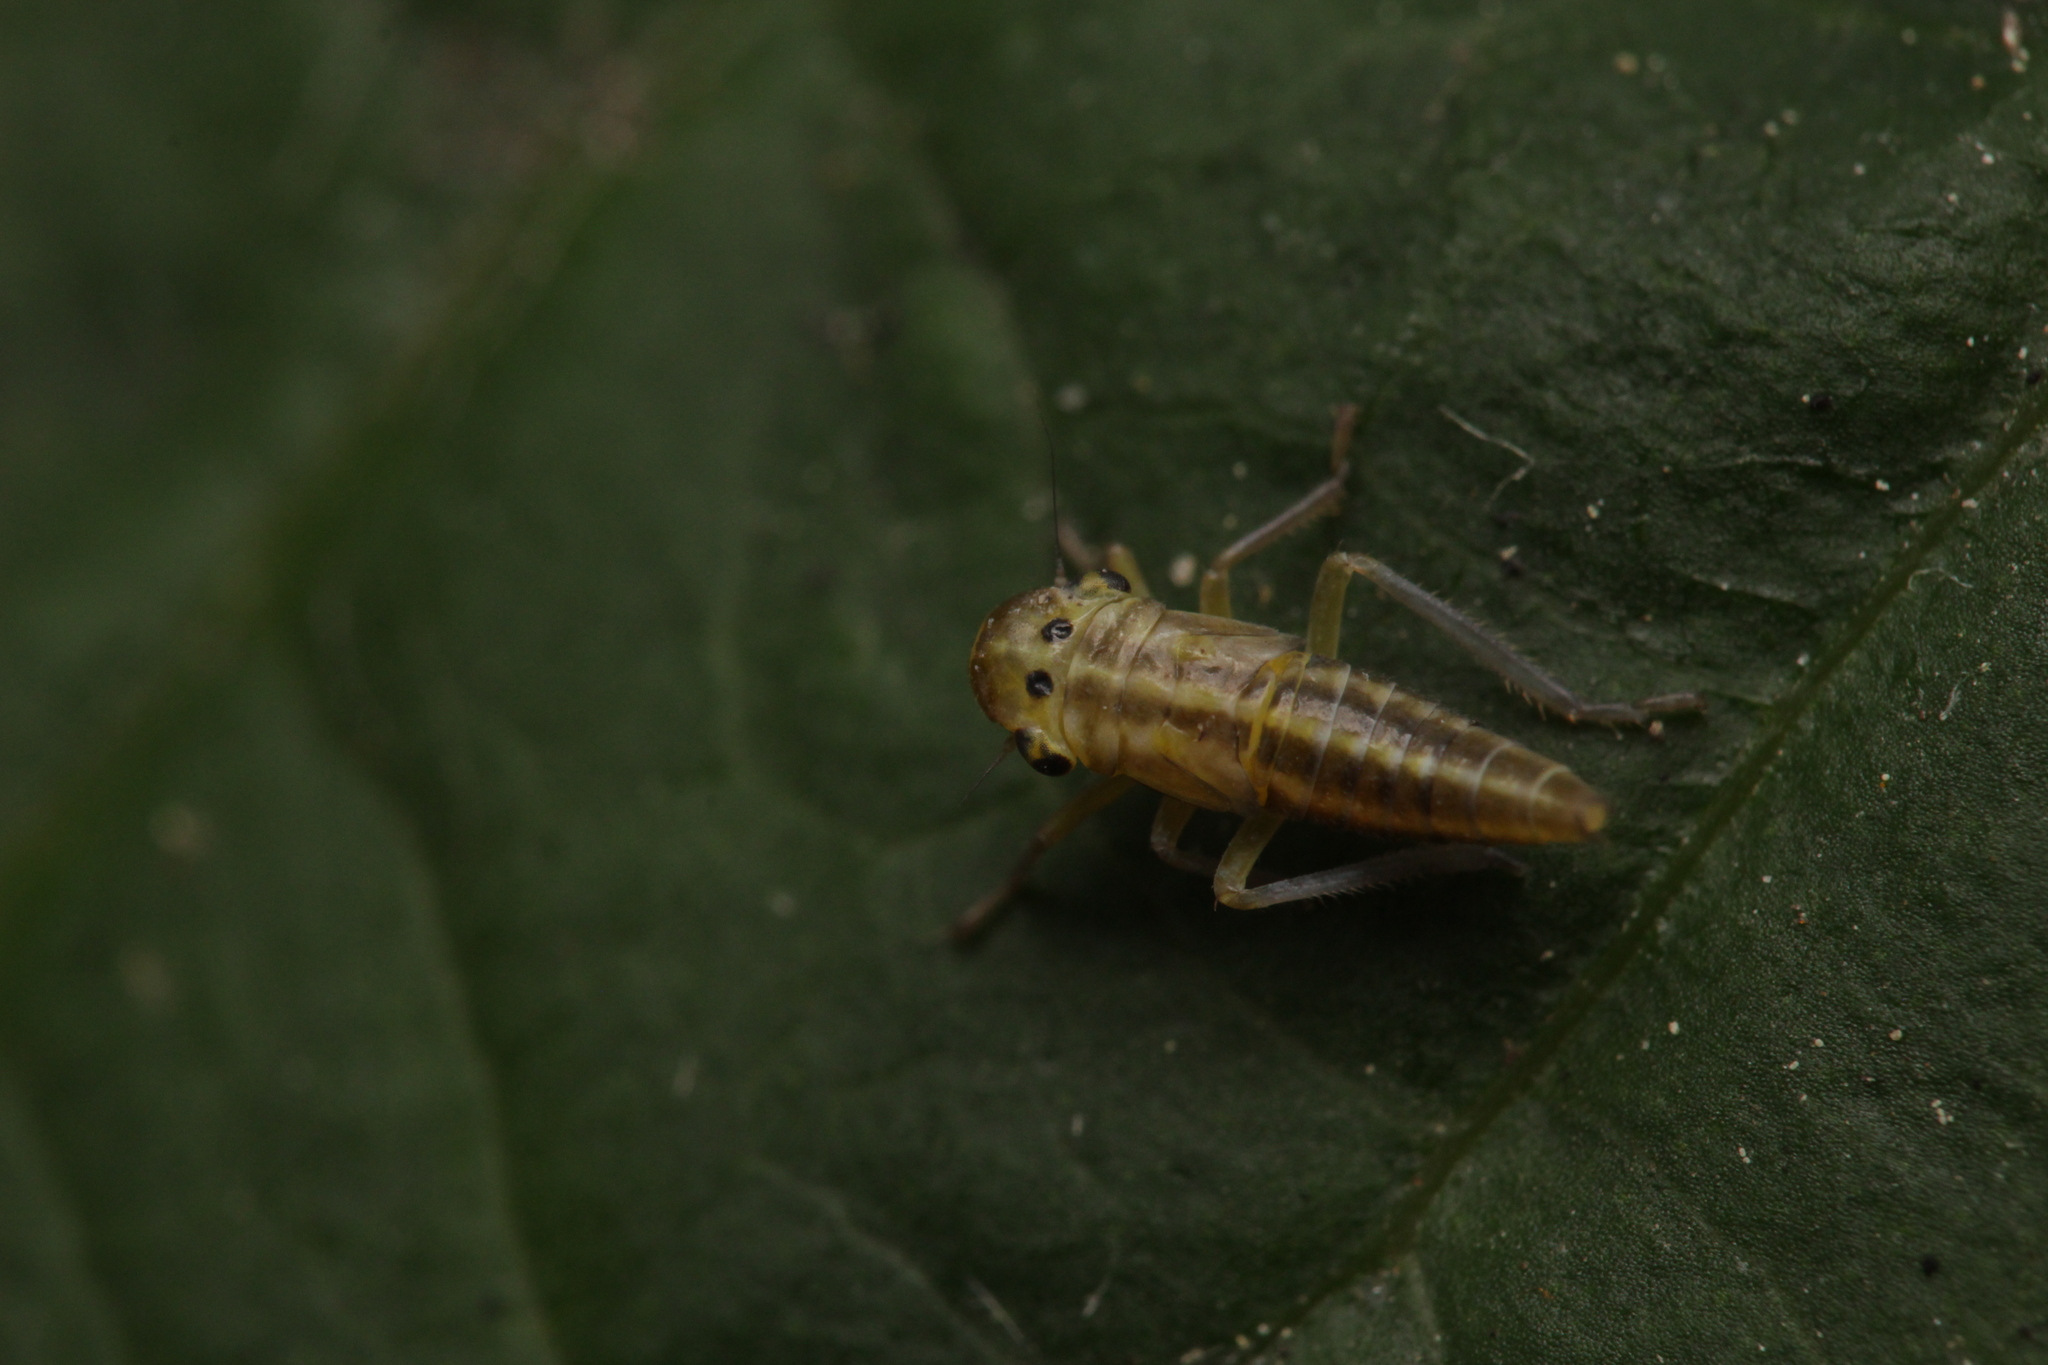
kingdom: Animalia
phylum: Arthropoda
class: Insecta
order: Hemiptera
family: Cicadellidae
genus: Cicadella
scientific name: Cicadella viridis
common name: Leafhopper
